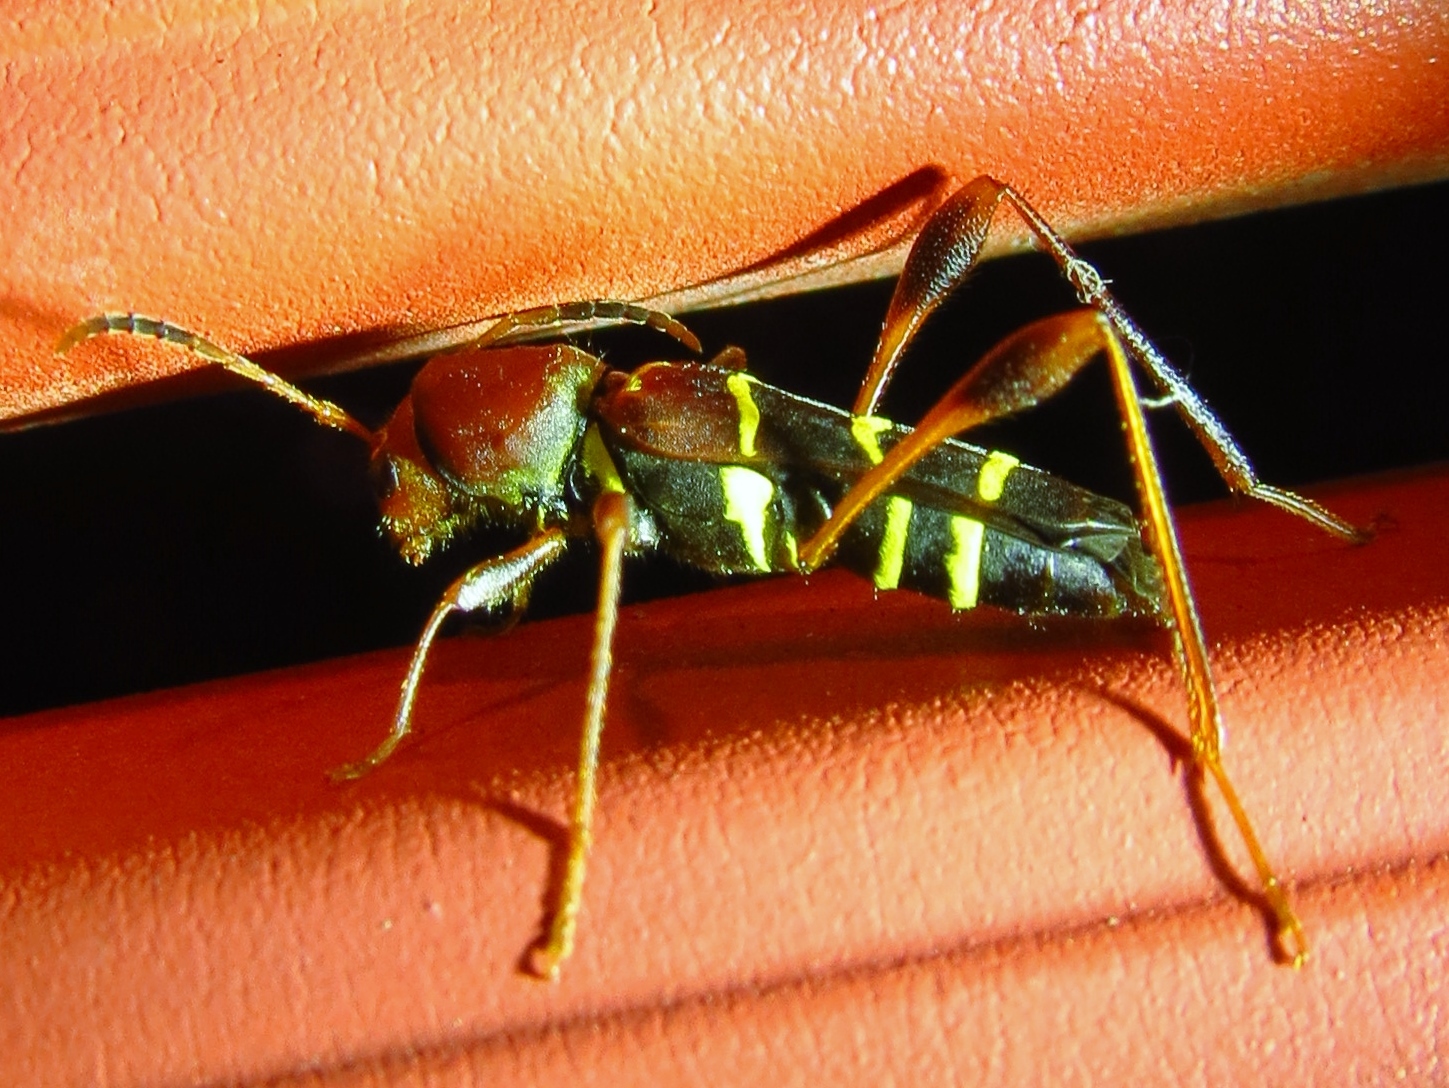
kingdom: Animalia
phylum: Arthropoda
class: Insecta
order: Coleoptera
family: Cerambycidae
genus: Neoclytus
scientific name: Neoclytus acuminatus
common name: Read-headed ash borer
